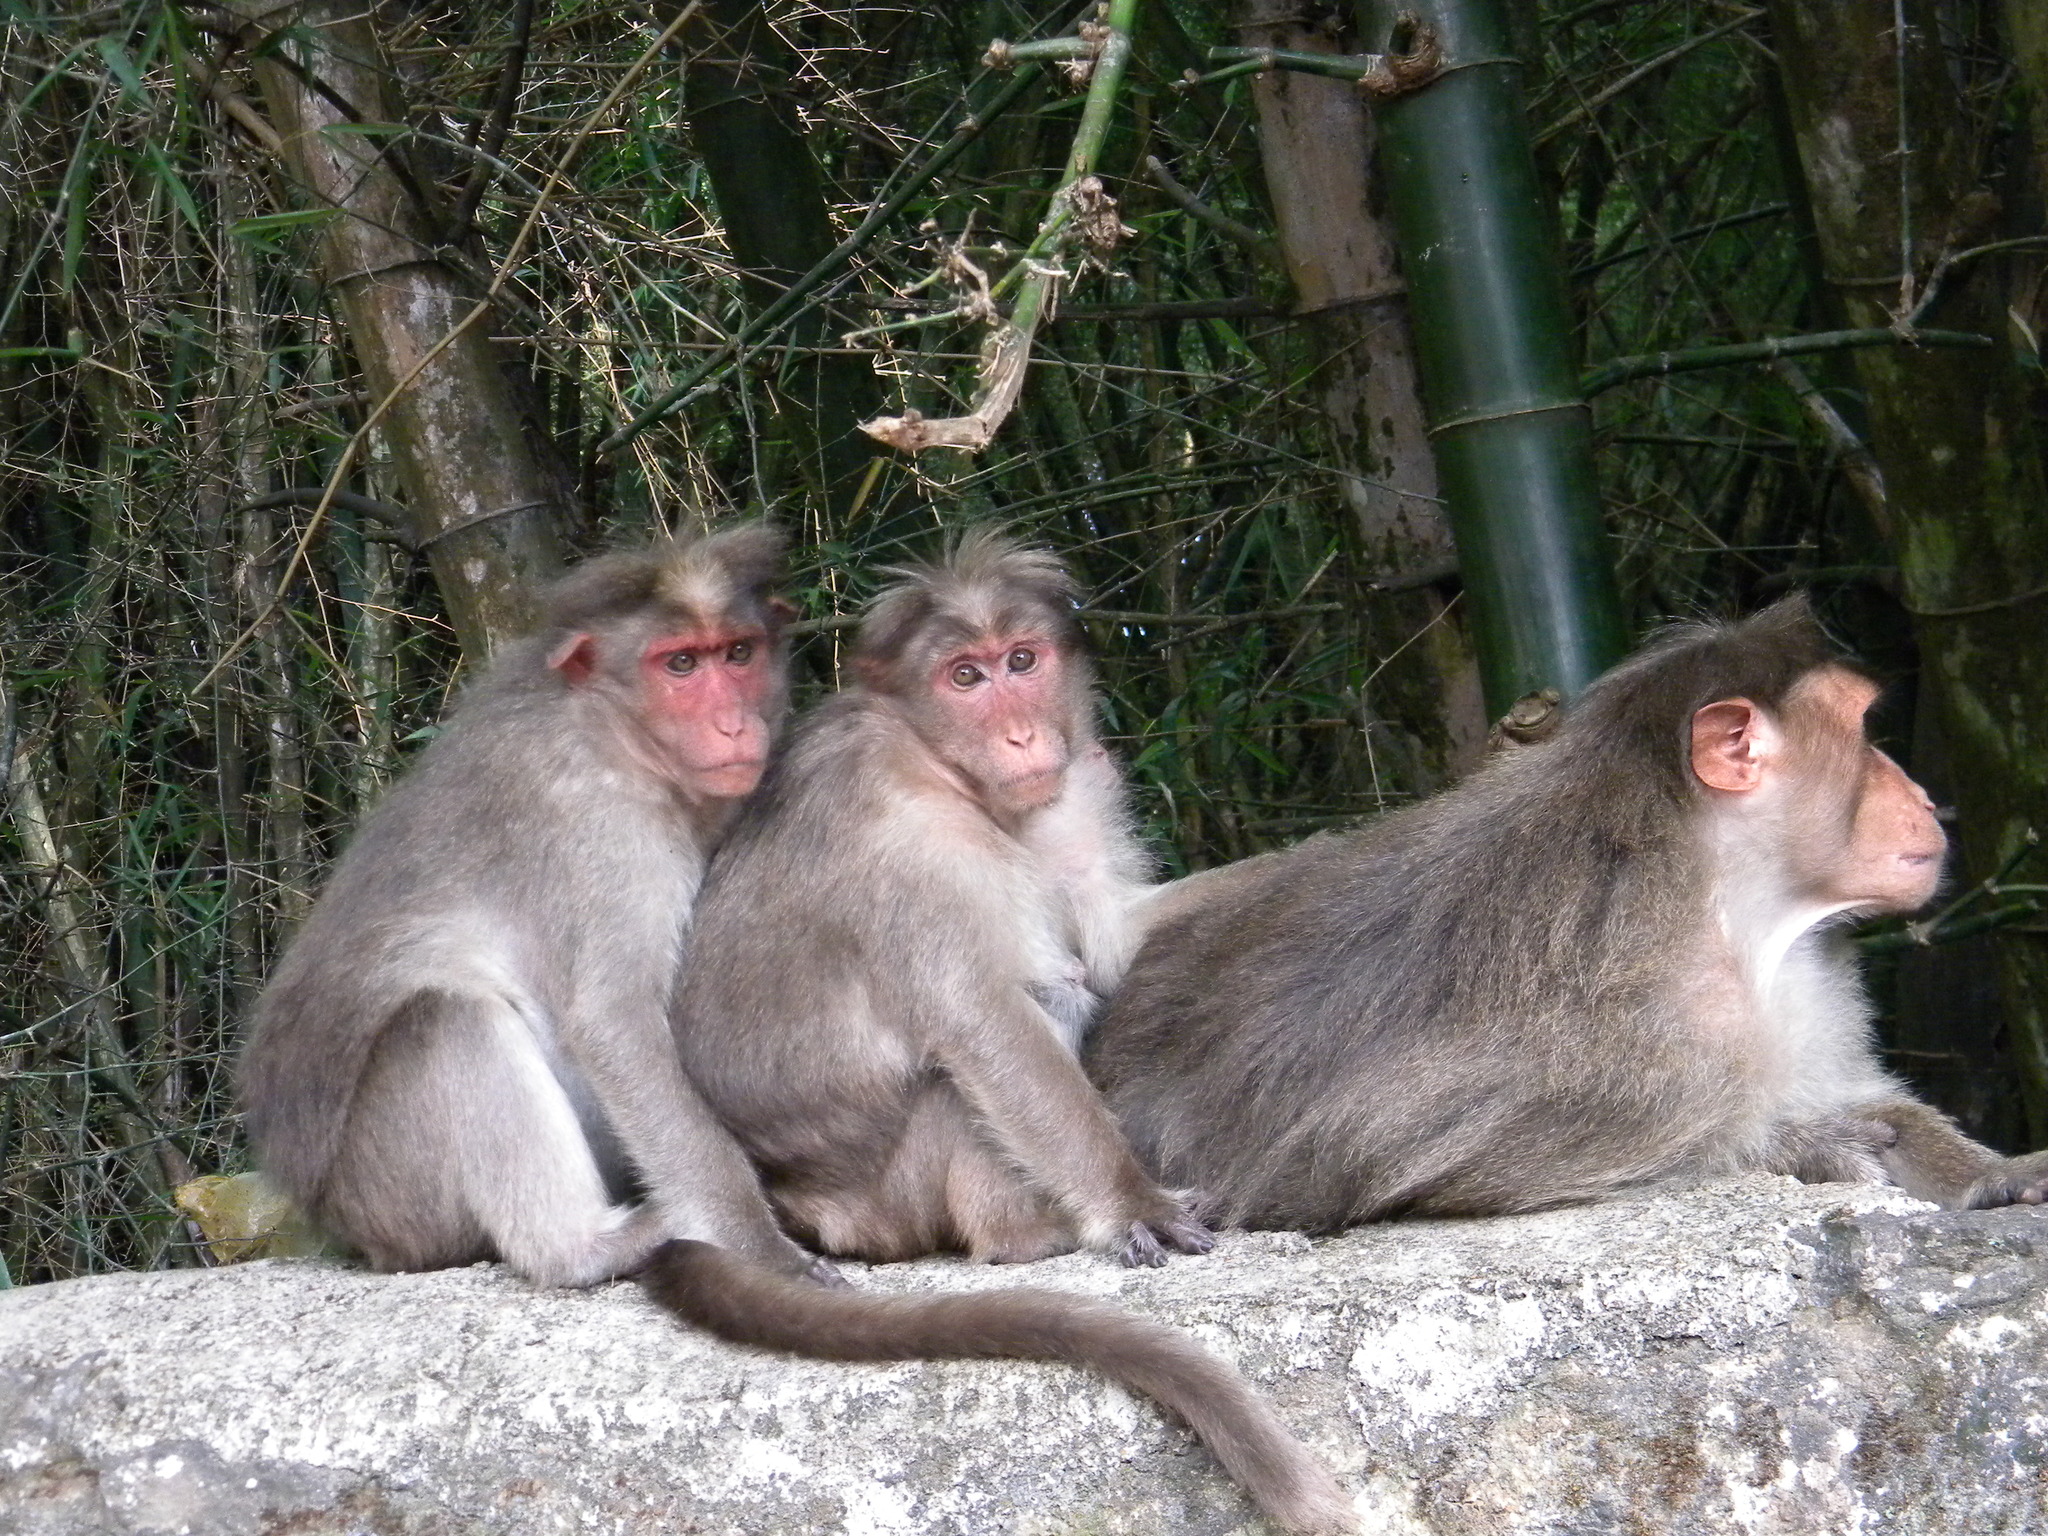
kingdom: Animalia
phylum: Chordata
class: Mammalia
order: Primates
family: Cercopithecidae
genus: Macaca
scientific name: Macaca radiata
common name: Bonnet macaque
